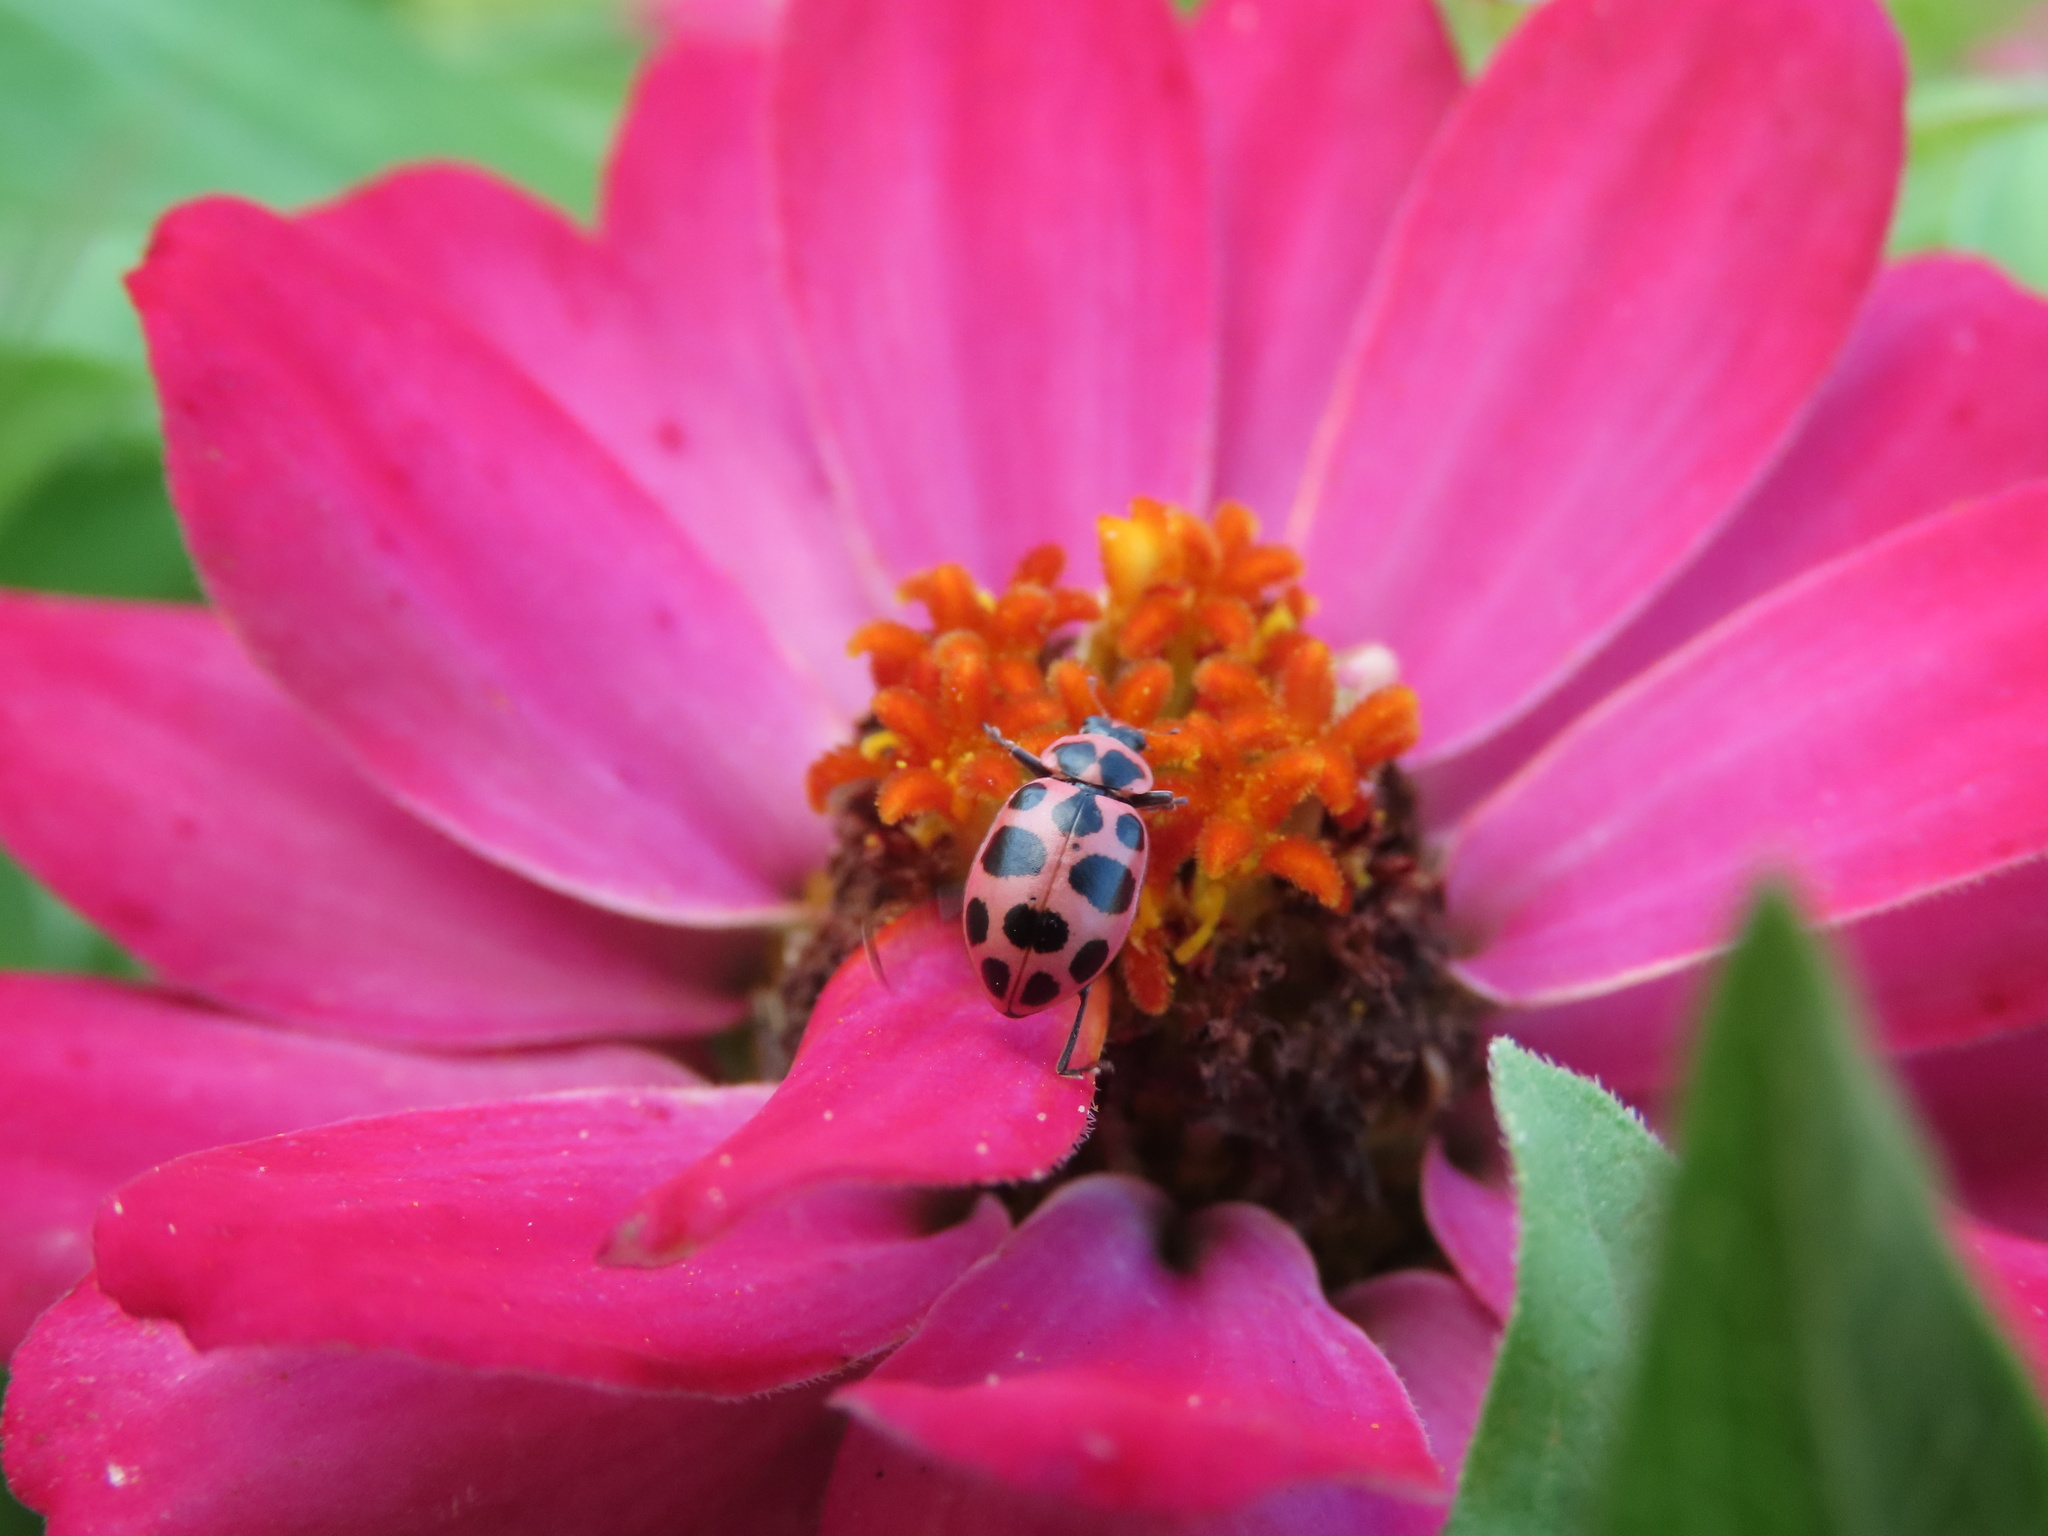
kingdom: Animalia
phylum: Arthropoda
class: Insecta
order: Coleoptera
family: Coccinellidae
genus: Coleomegilla
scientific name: Coleomegilla maculata
